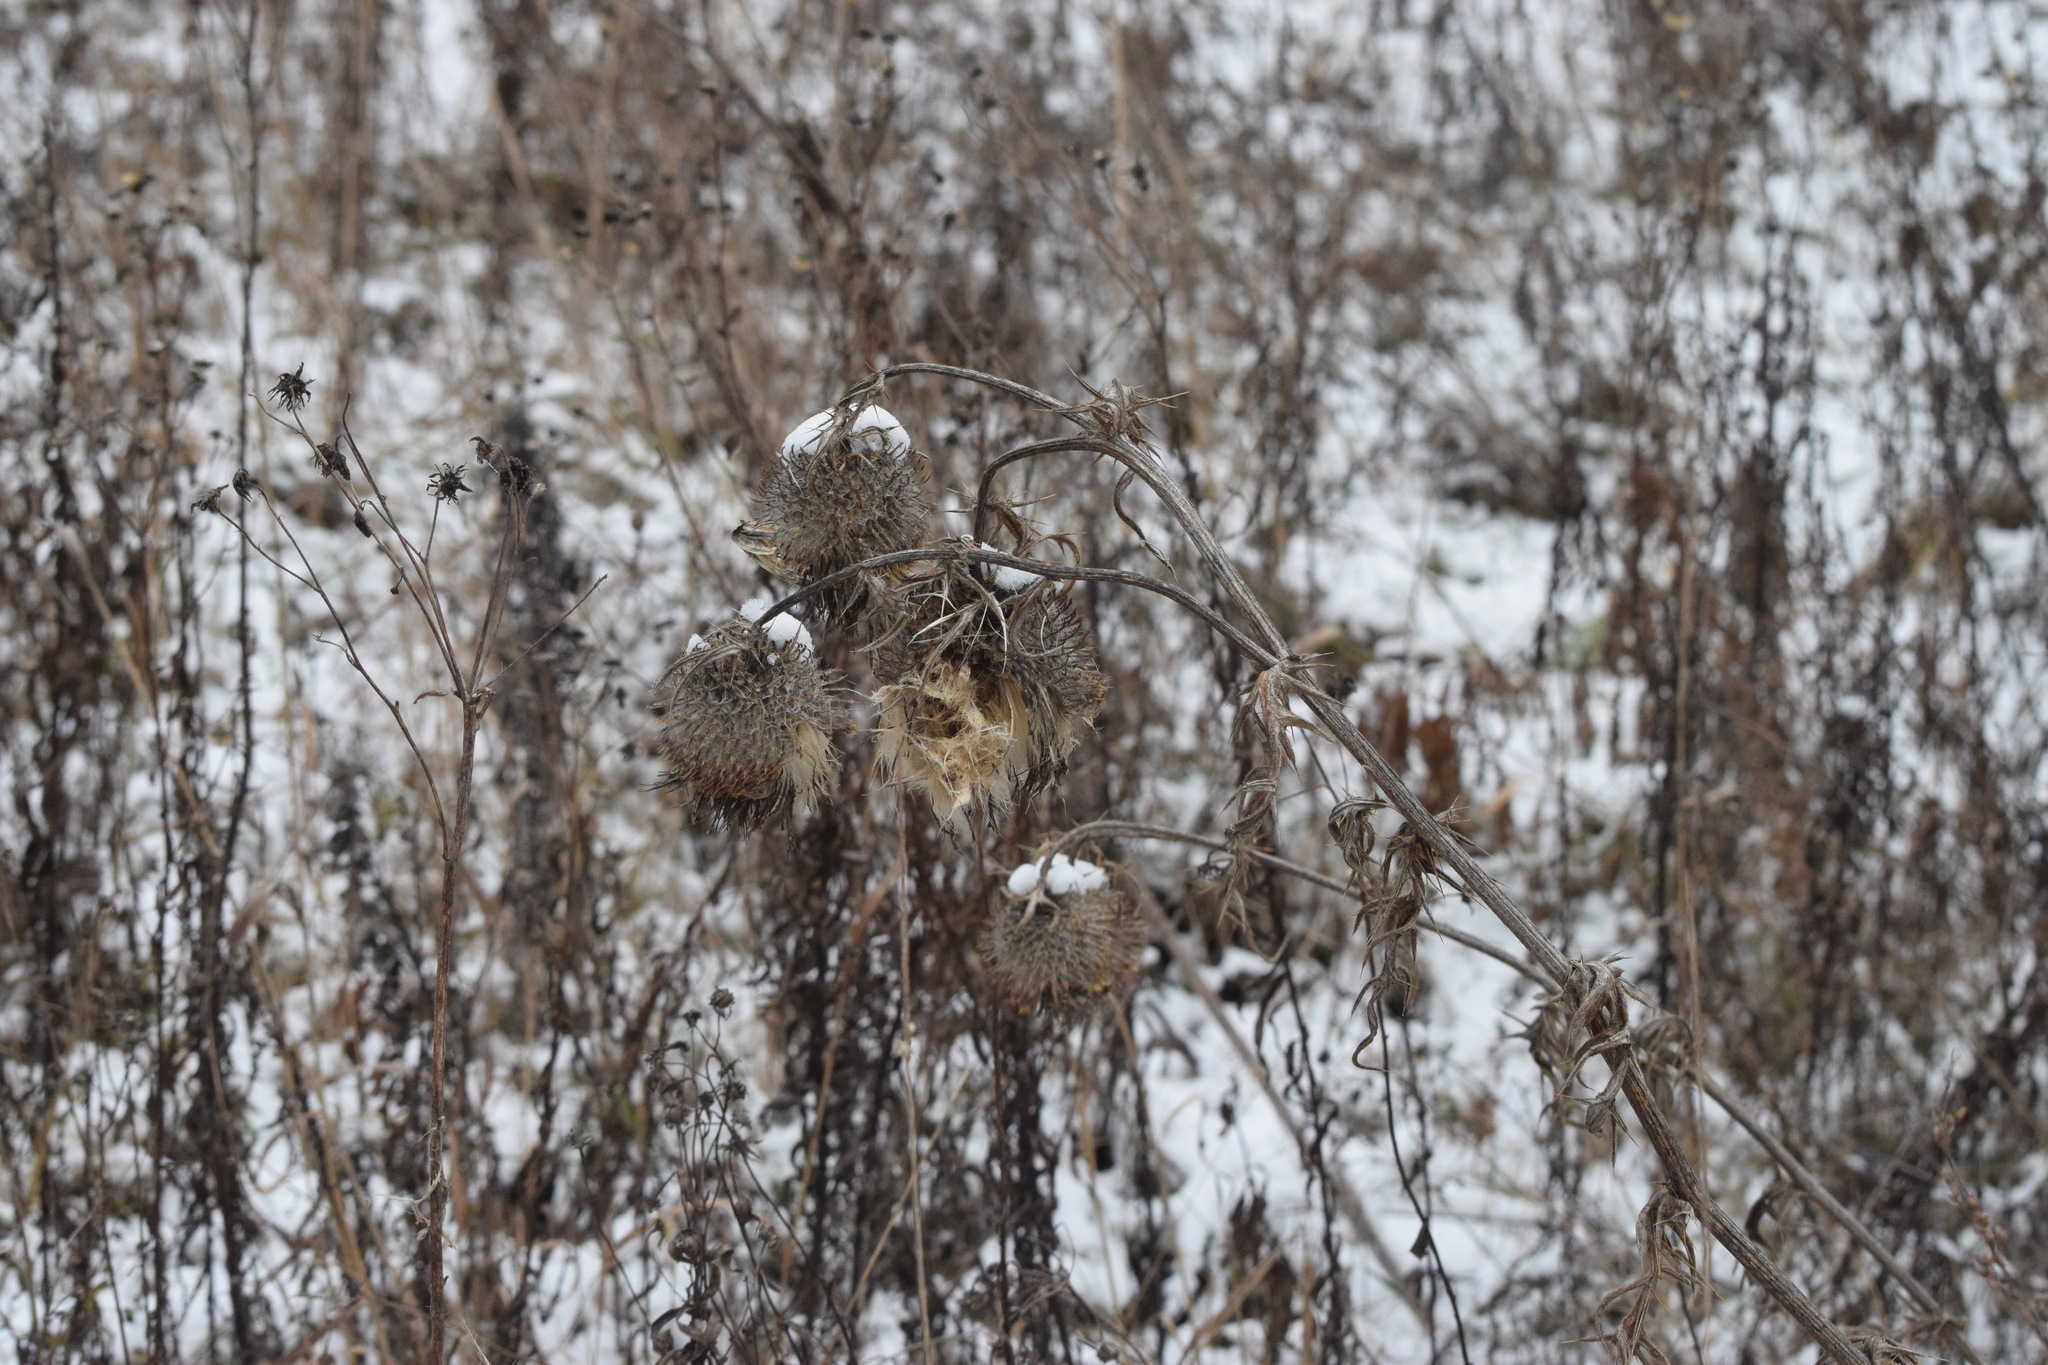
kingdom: Plantae
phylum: Tracheophyta
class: Magnoliopsida
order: Asterales
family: Asteraceae
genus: Cirsium
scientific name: Cirsium vulgare
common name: Bull thistle
